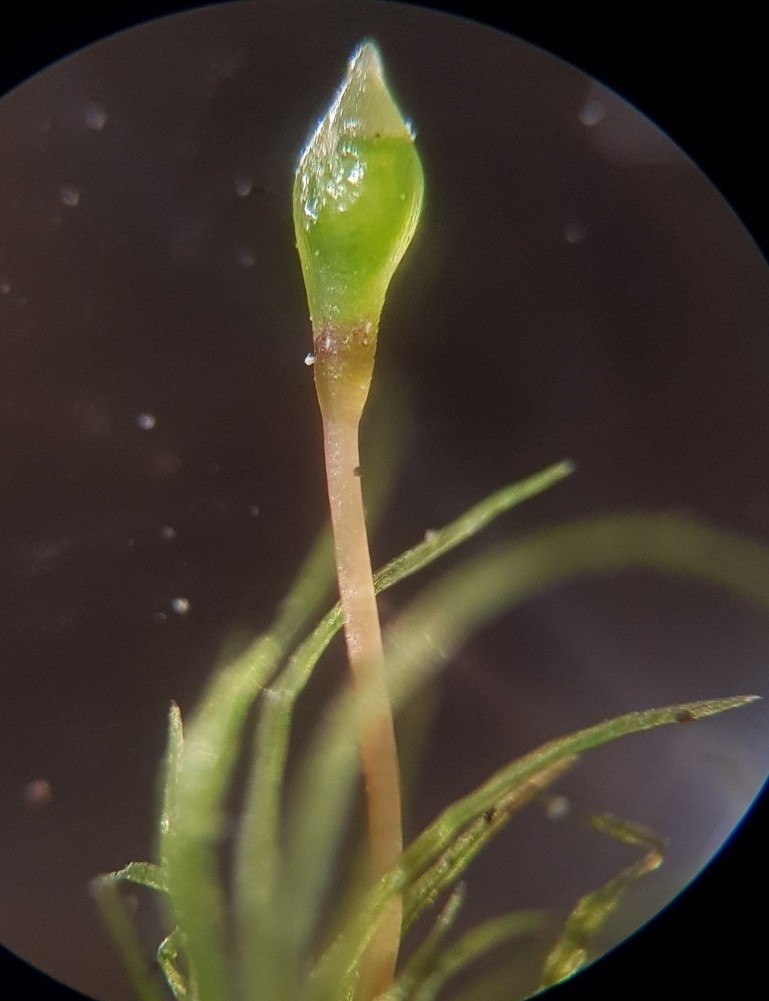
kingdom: Plantae
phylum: Bryophyta
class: Bryopsida
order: Orthodontiales
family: Orthodontiaceae
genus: Orthodontium
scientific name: Orthodontium lineare
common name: Cape thread-moss
